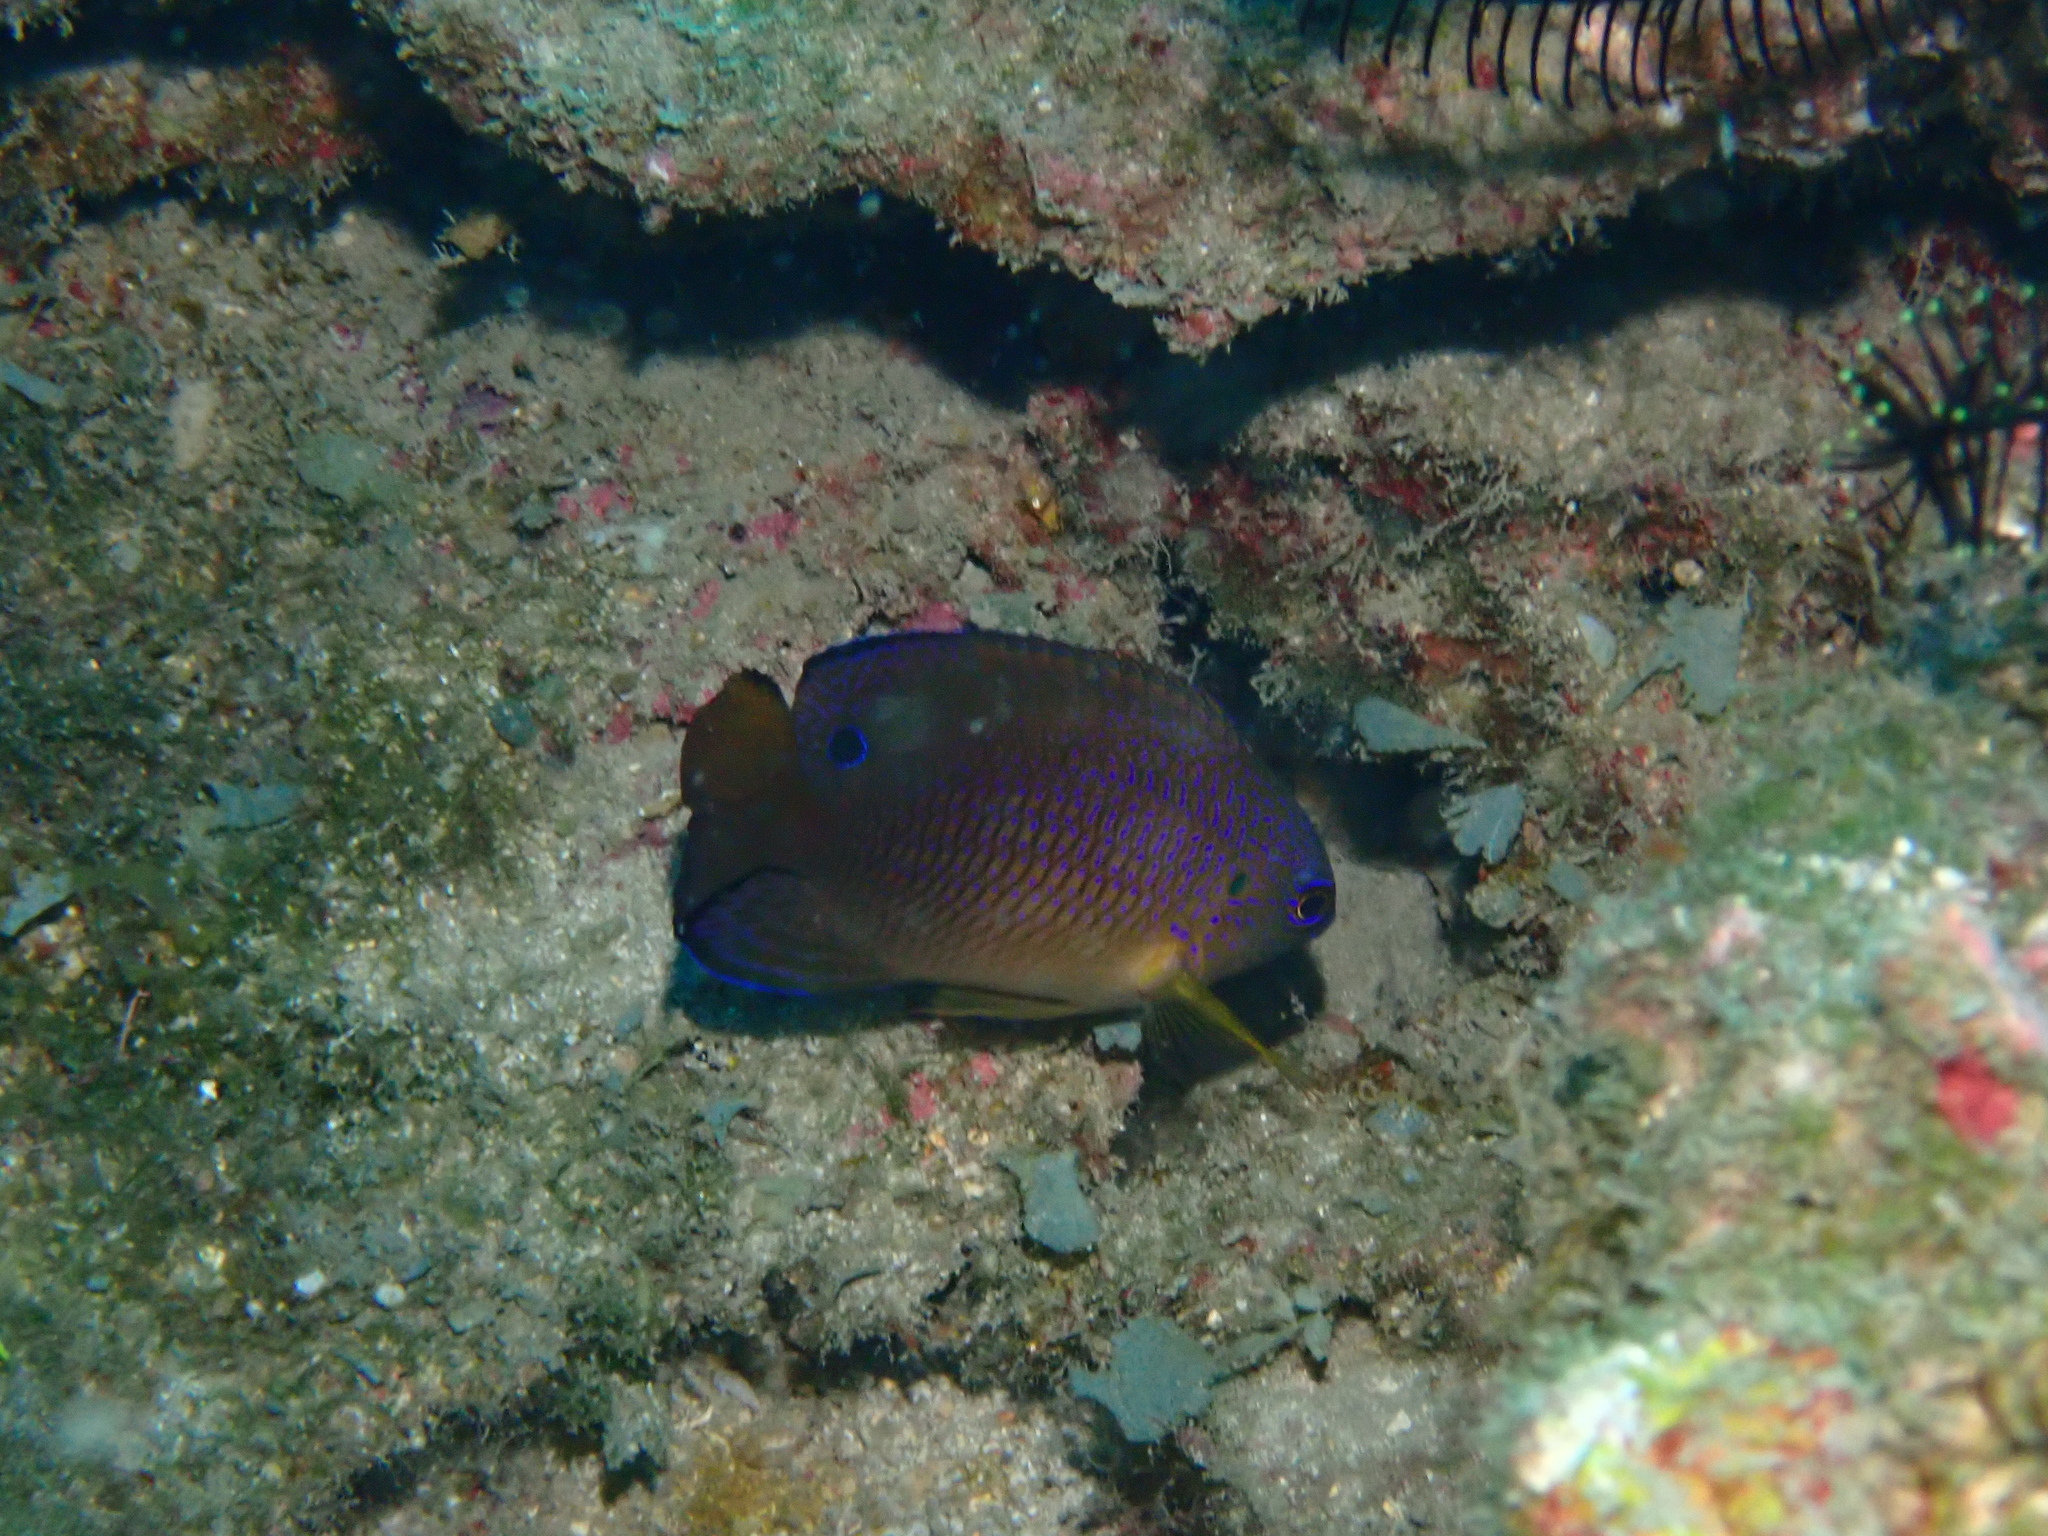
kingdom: Animalia
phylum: Chordata
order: Perciformes
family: Pomacentridae
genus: Pomacentrus
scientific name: Pomacentrus vaiuli
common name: Princess damsel
